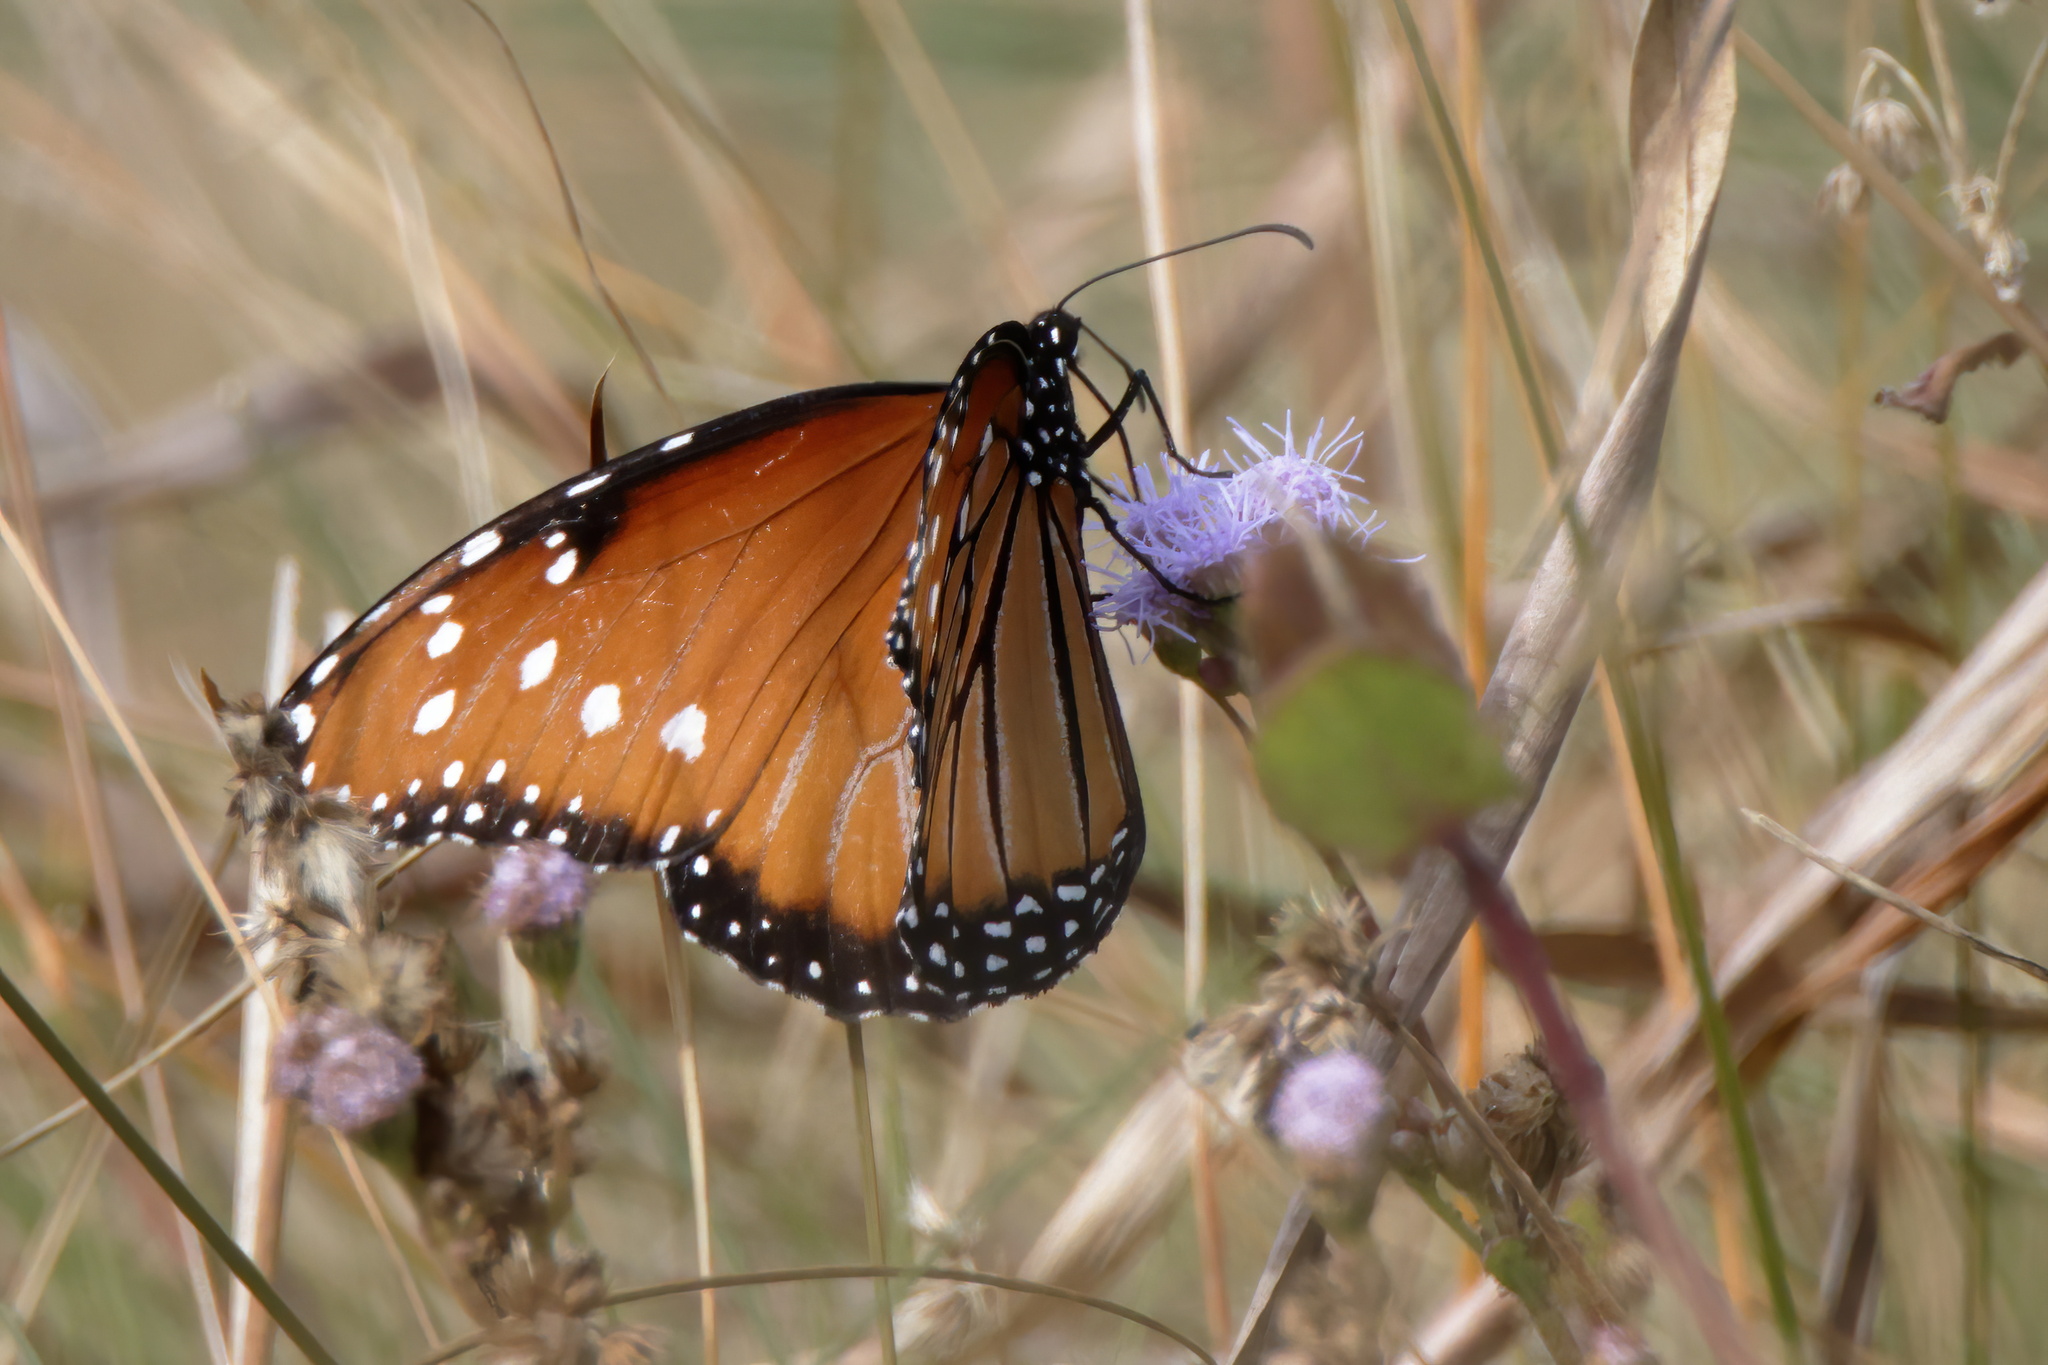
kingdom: Animalia
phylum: Arthropoda
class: Insecta
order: Lepidoptera
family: Nymphalidae
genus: Danaus
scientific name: Danaus gilippus
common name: Queen
